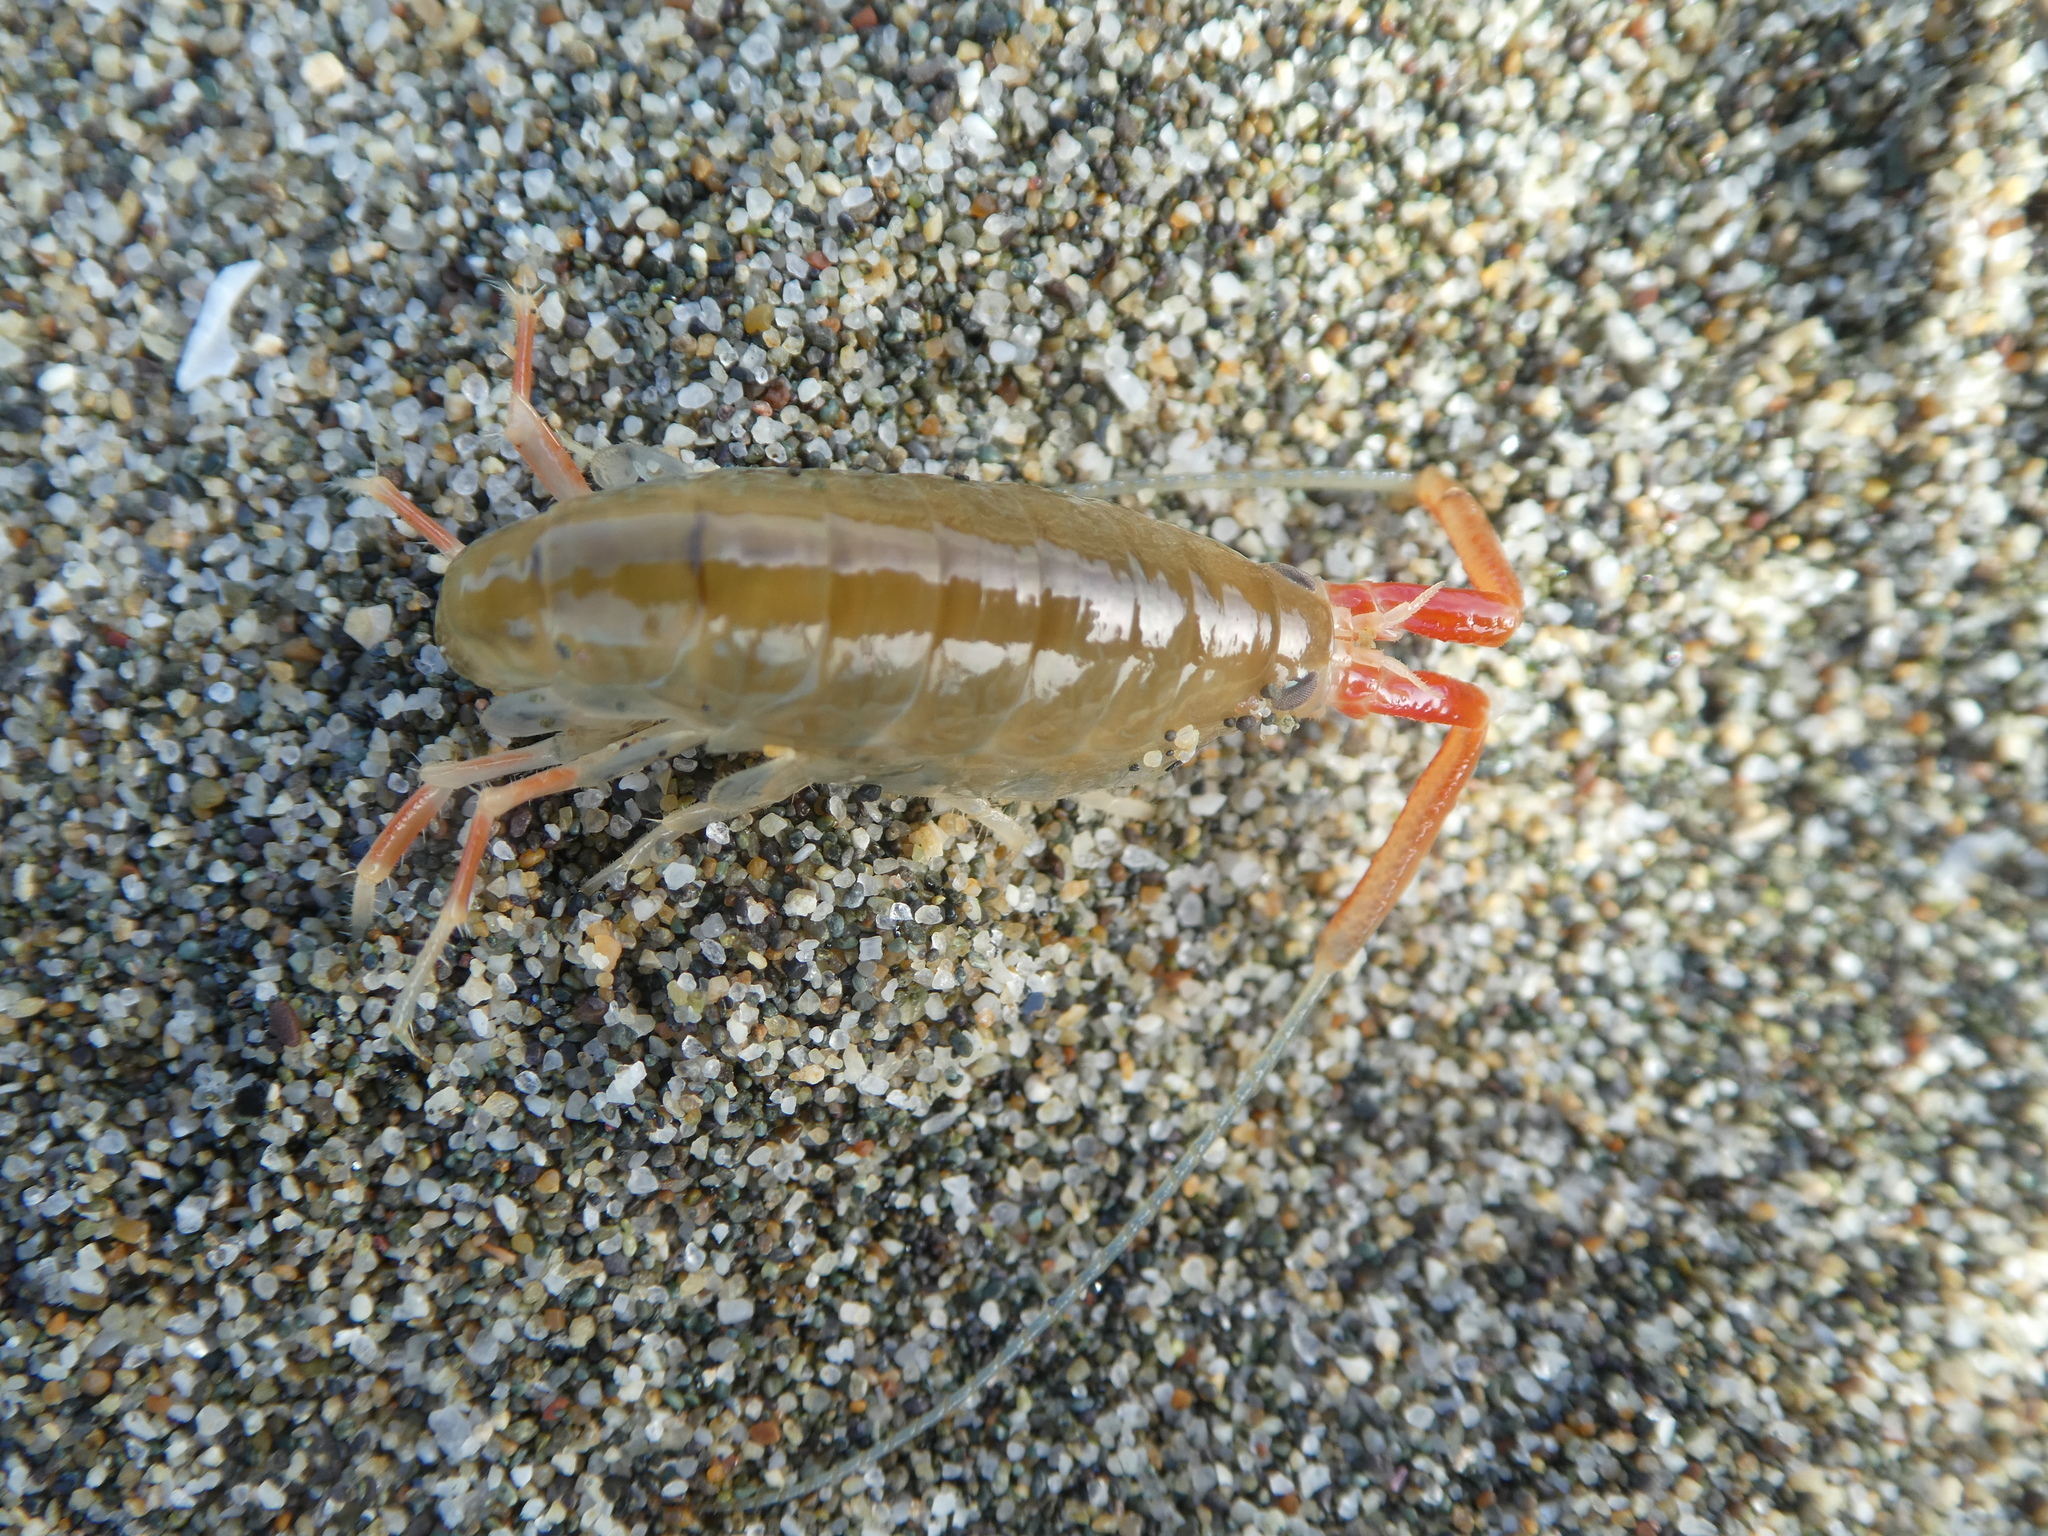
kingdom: Animalia
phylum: Arthropoda
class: Malacostraca
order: Amphipoda
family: Talitridae
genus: Megalorchestia
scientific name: Megalorchestia californiana
